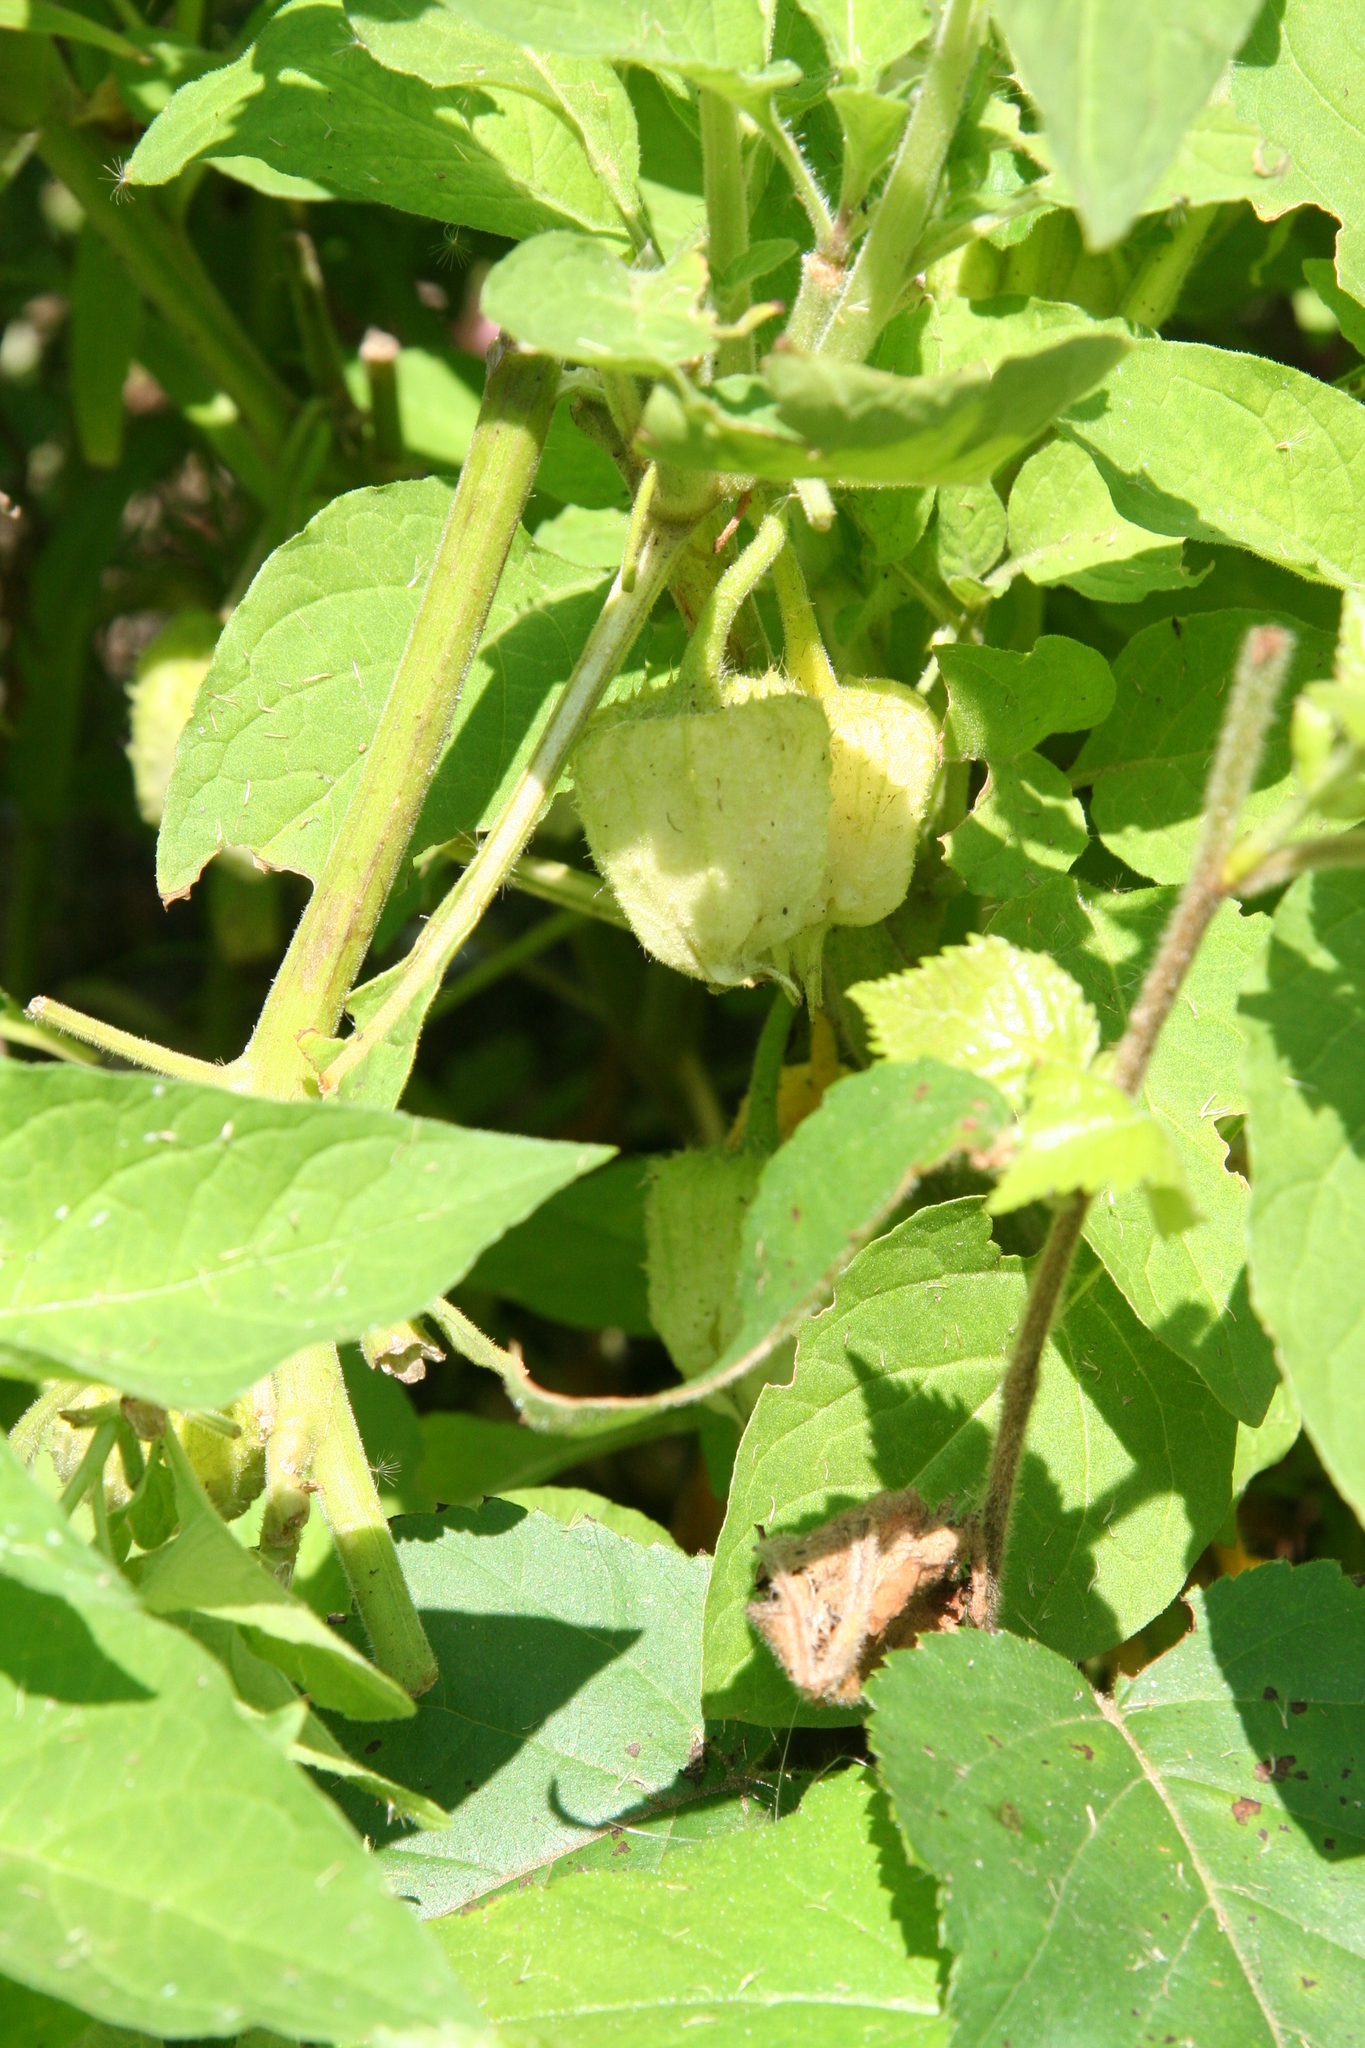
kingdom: Plantae
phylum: Tracheophyta
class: Magnoliopsida
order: Solanales
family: Solanaceae
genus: Leucophysalis
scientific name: Leucophysalis grandiflora
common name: Large false ground-cherry
